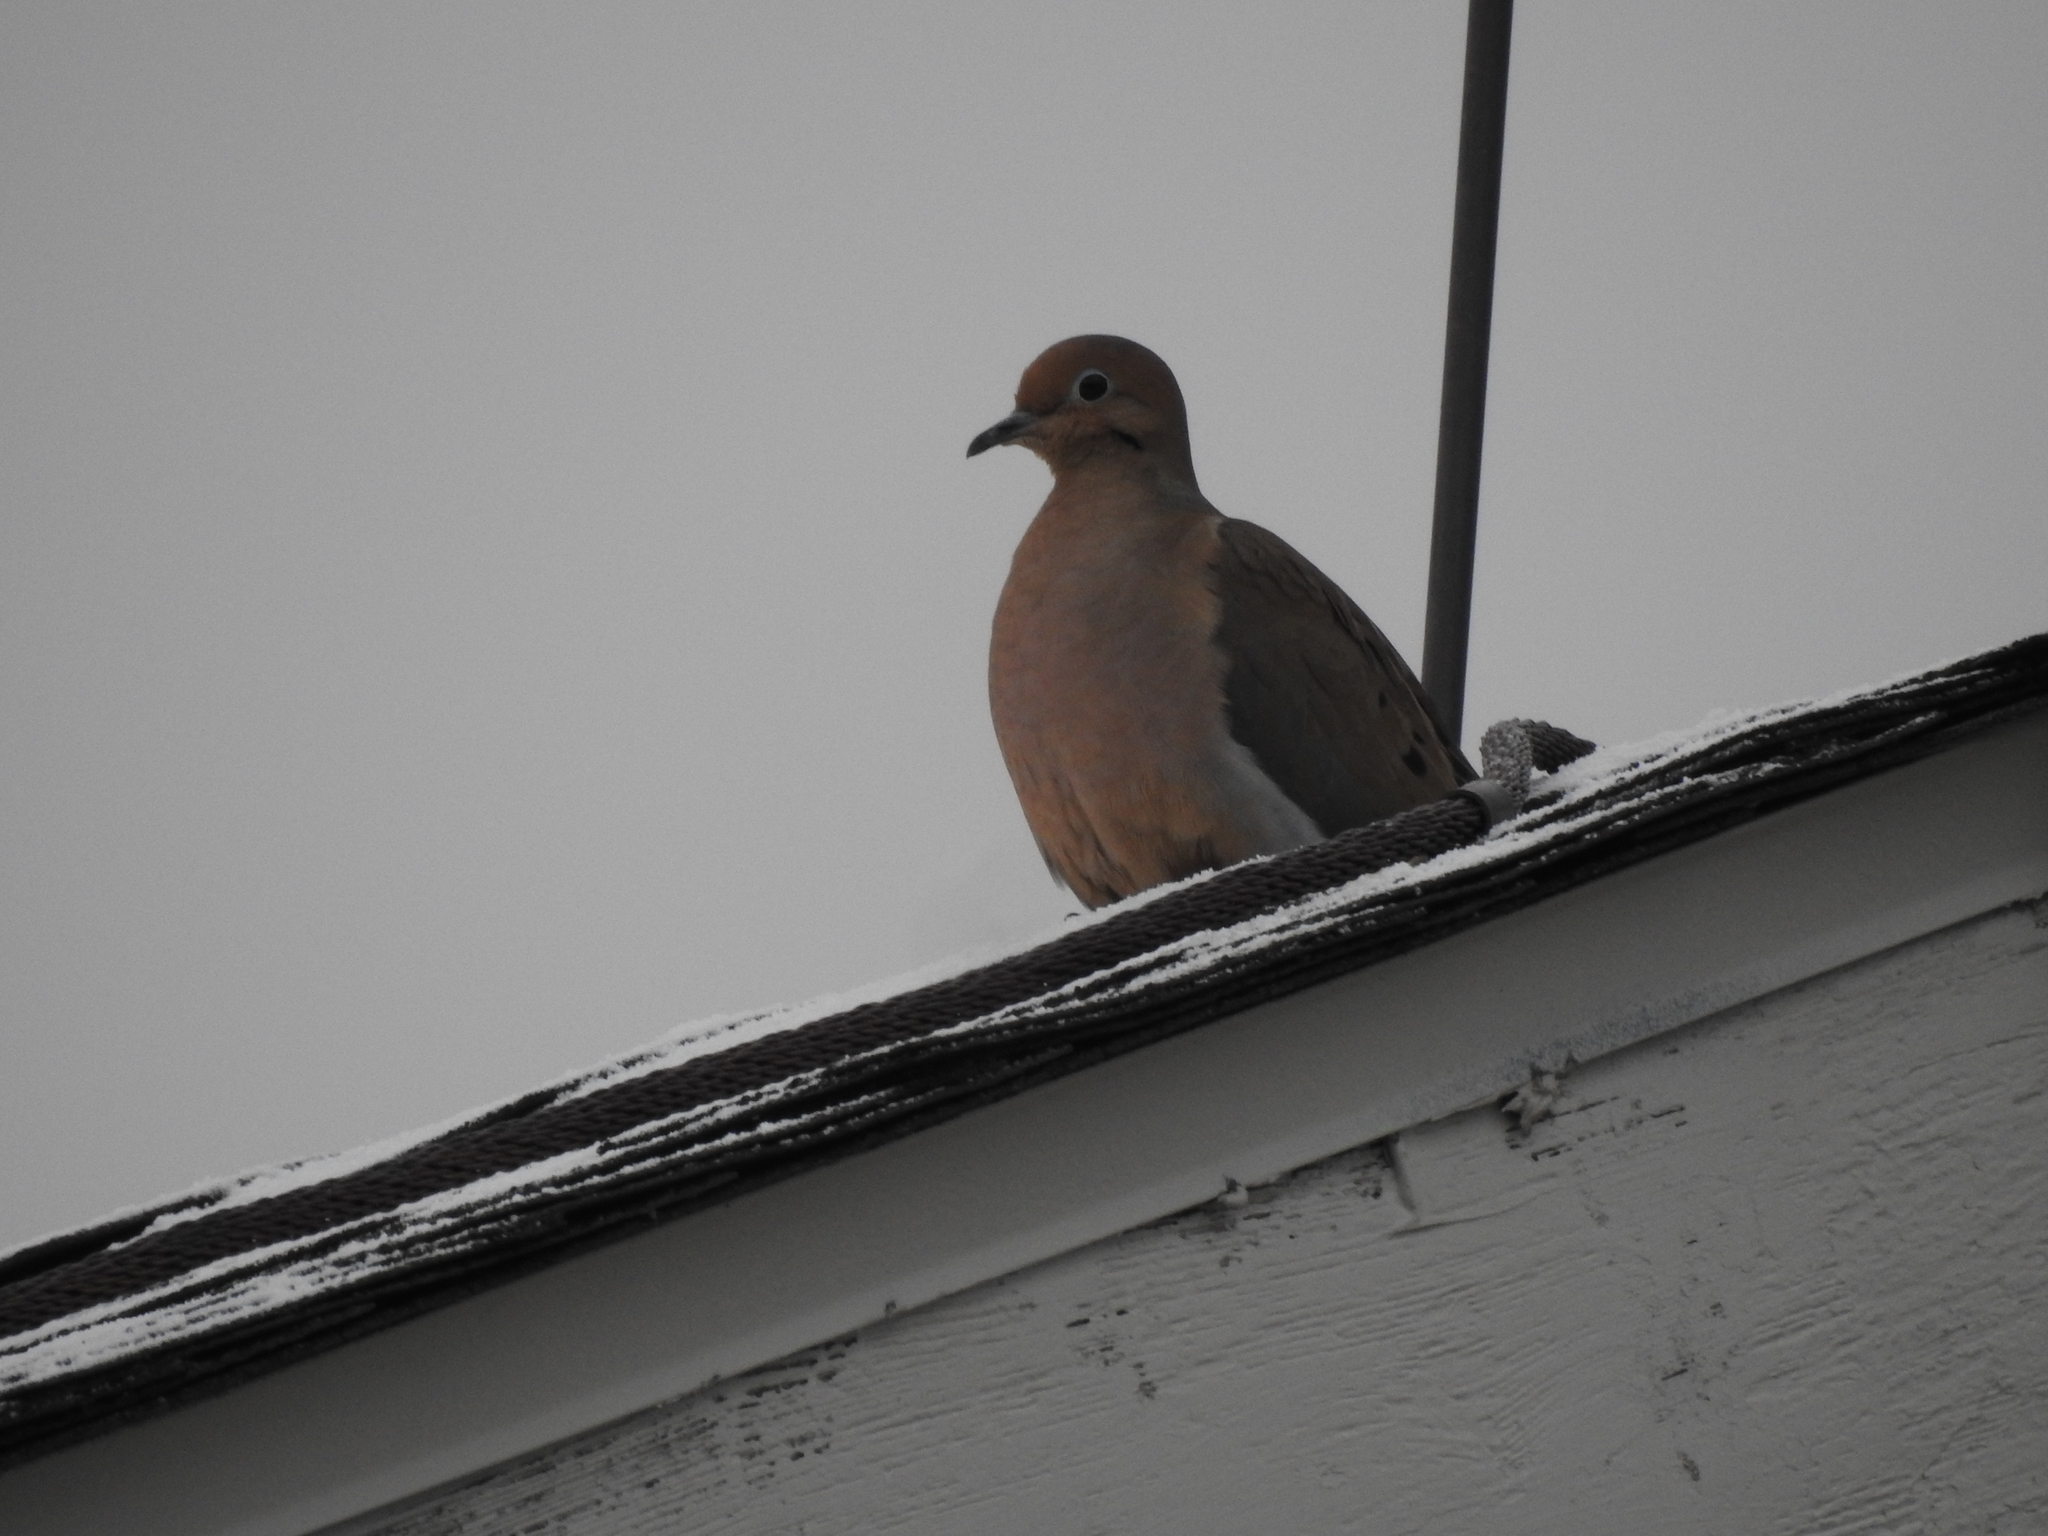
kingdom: Animalia
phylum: Chordata
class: Aves
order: Columbiformes
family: Columbidae
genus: Zenaida
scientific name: Zenaida macroura
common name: Mourning dove
